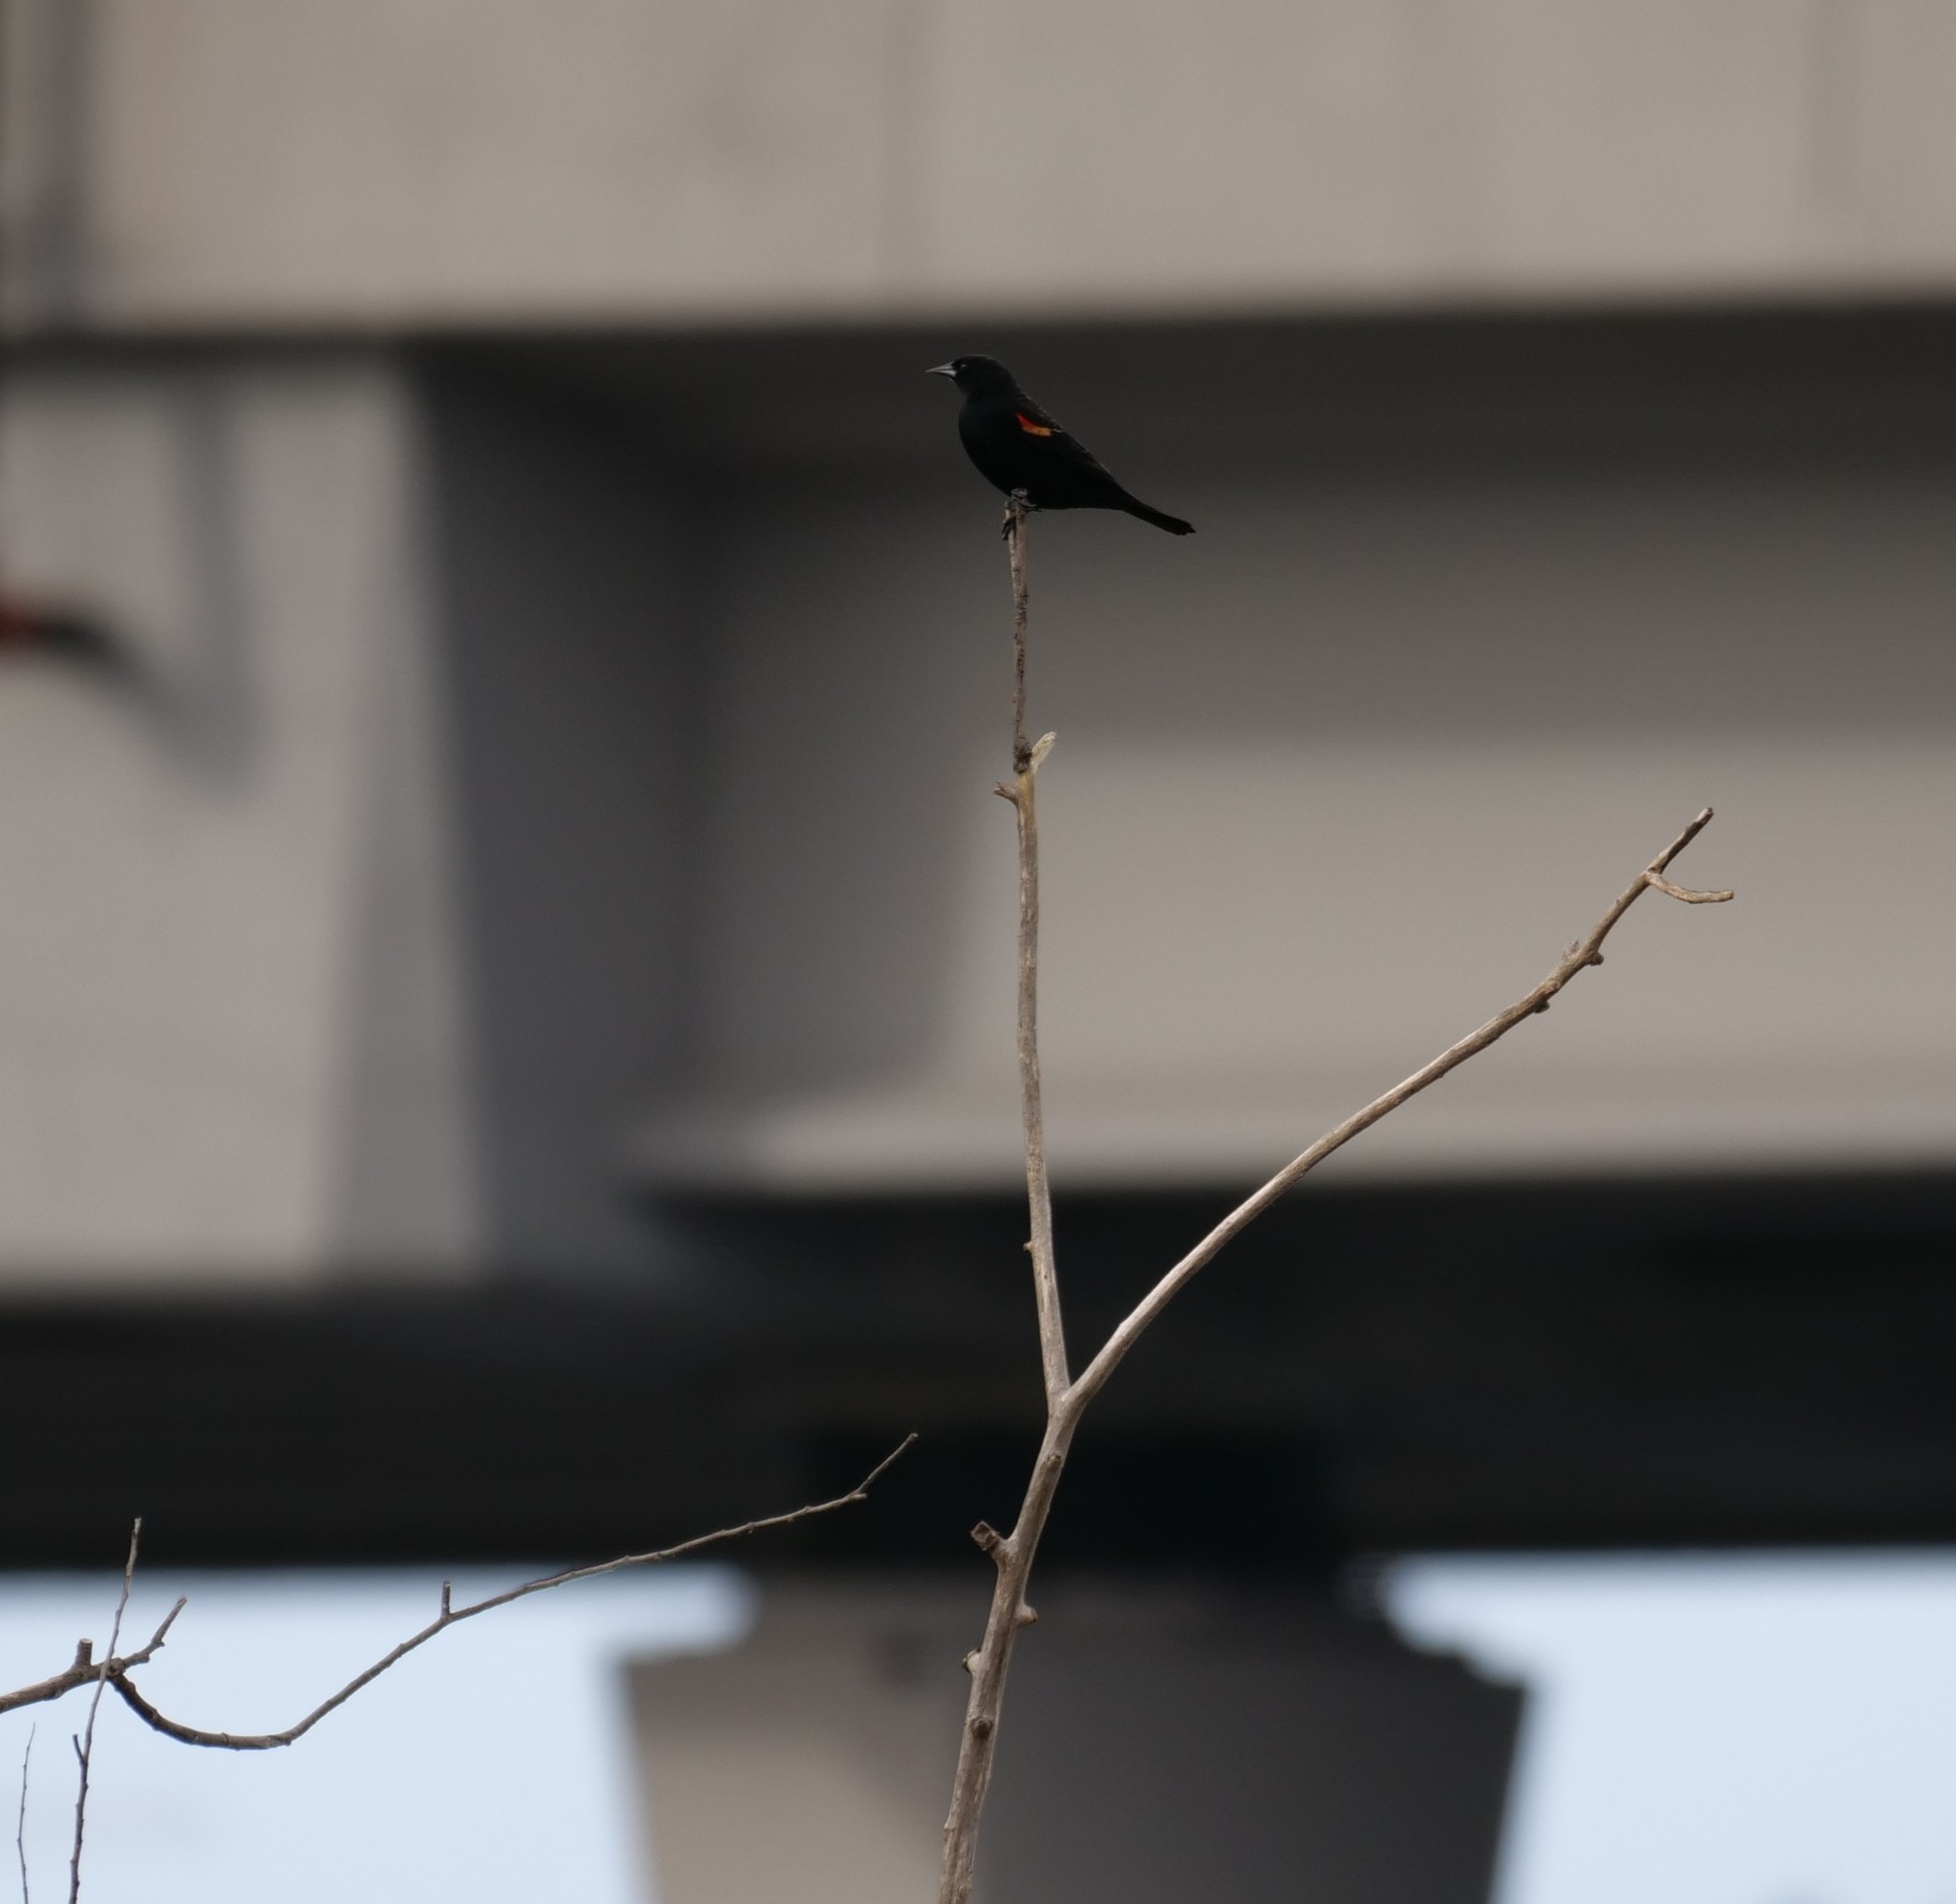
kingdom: Animalia
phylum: Chordata
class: Aves
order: Passeriformes
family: Icteridae
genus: Agelaius
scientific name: Agelaius phoeniceus
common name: Red-winged blackbird
